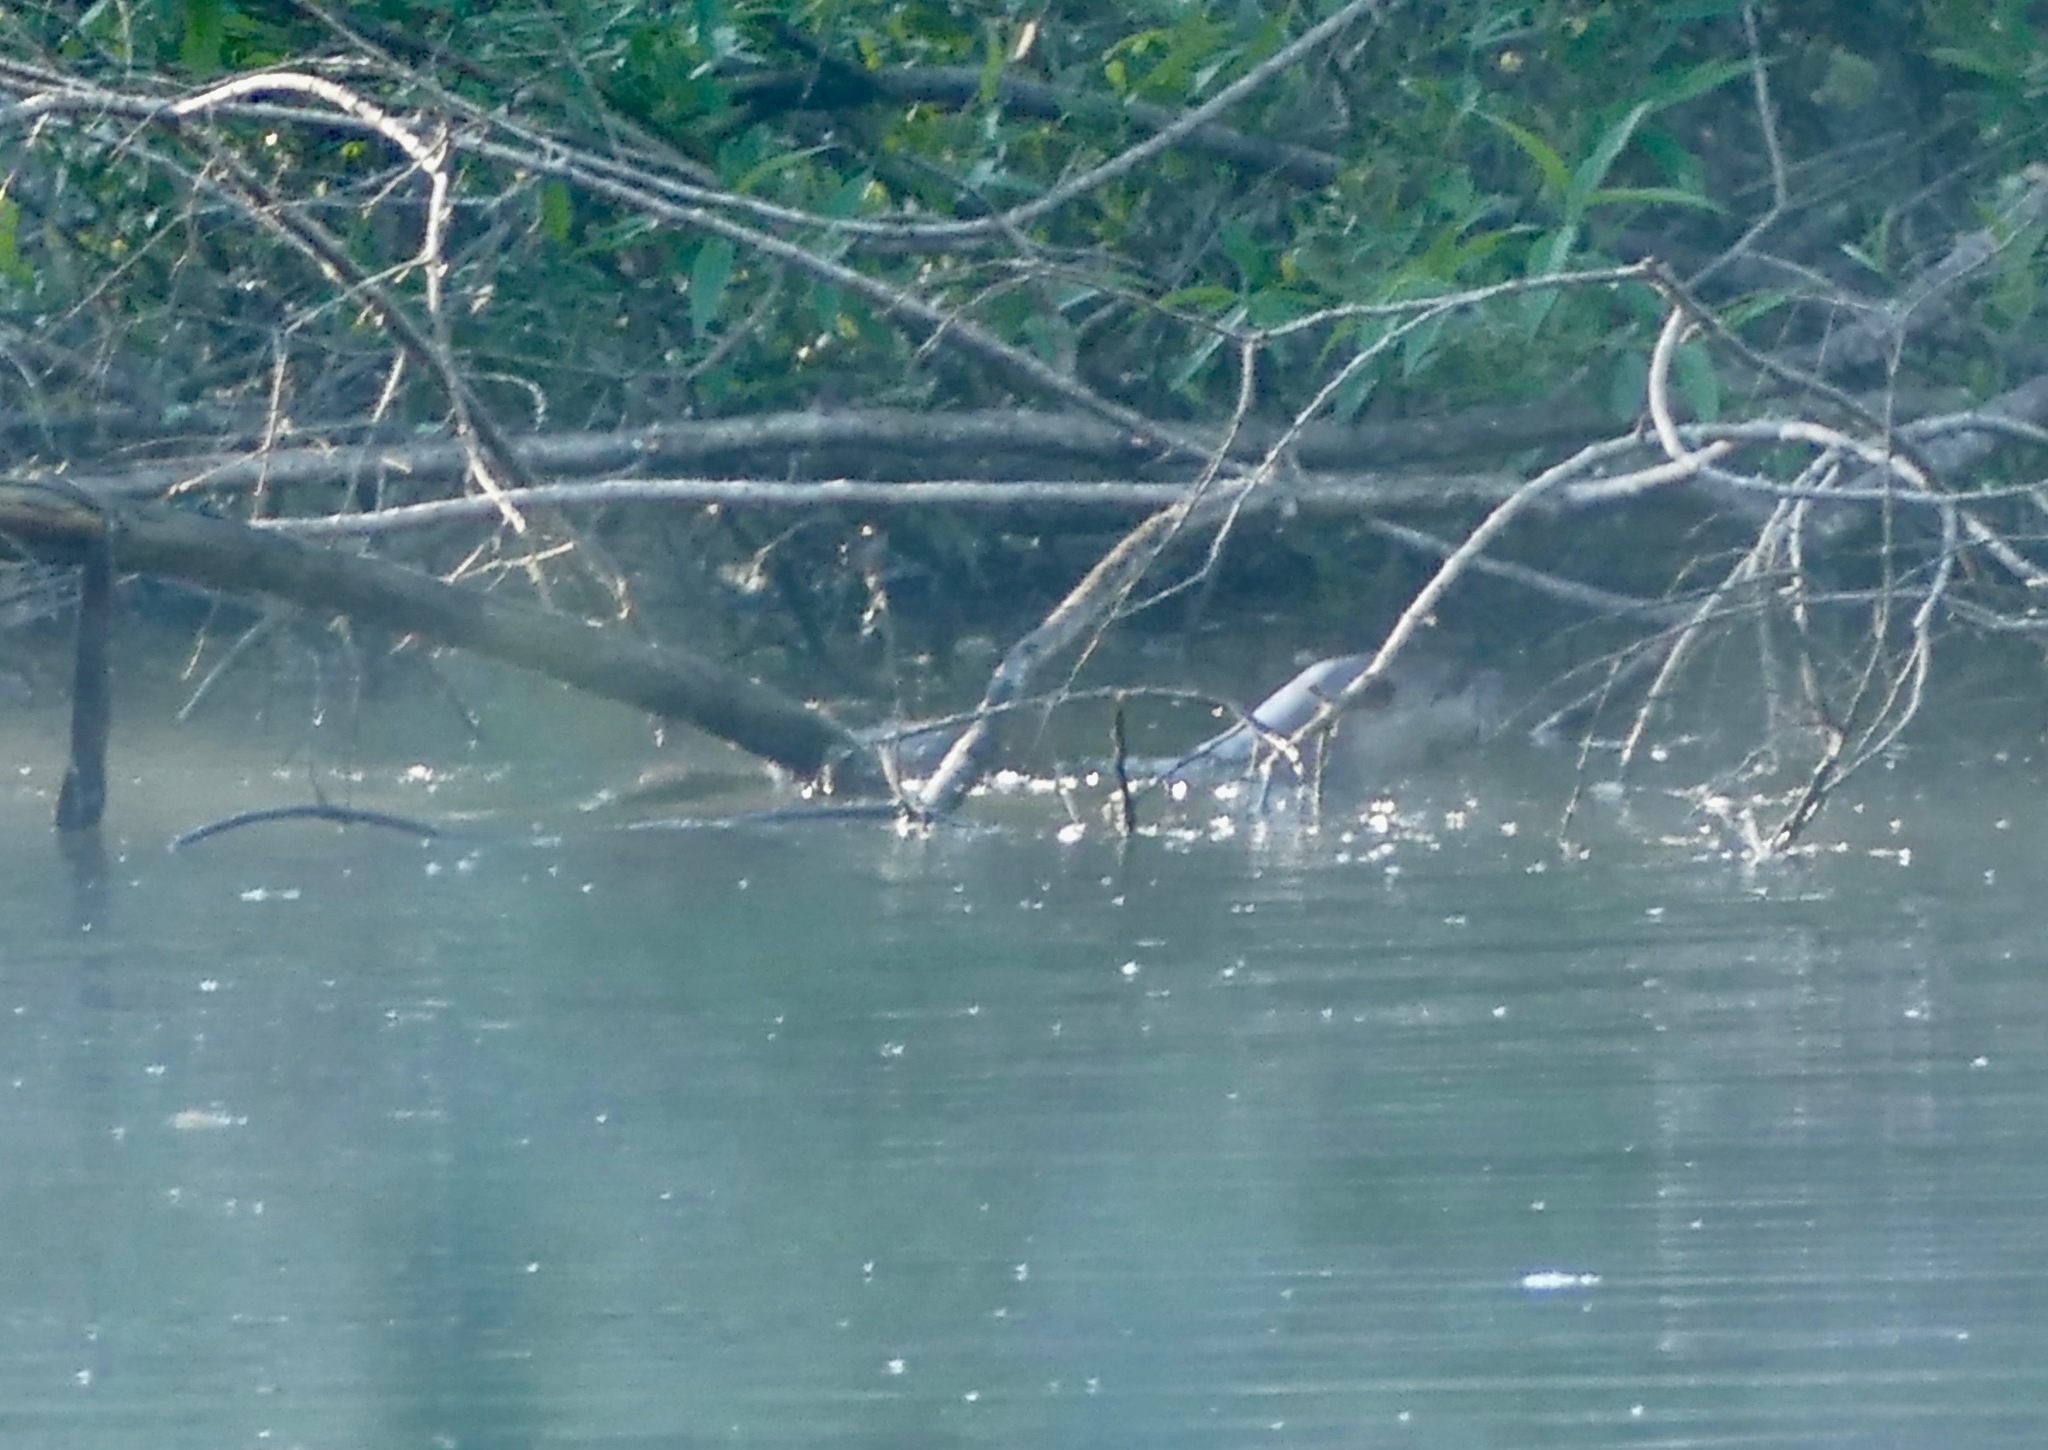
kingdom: Animalia
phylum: Chordata
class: Mammalia
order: Carnivora
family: Mustelidae
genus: Lontra
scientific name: Lontra canadensis
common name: North american river otter
